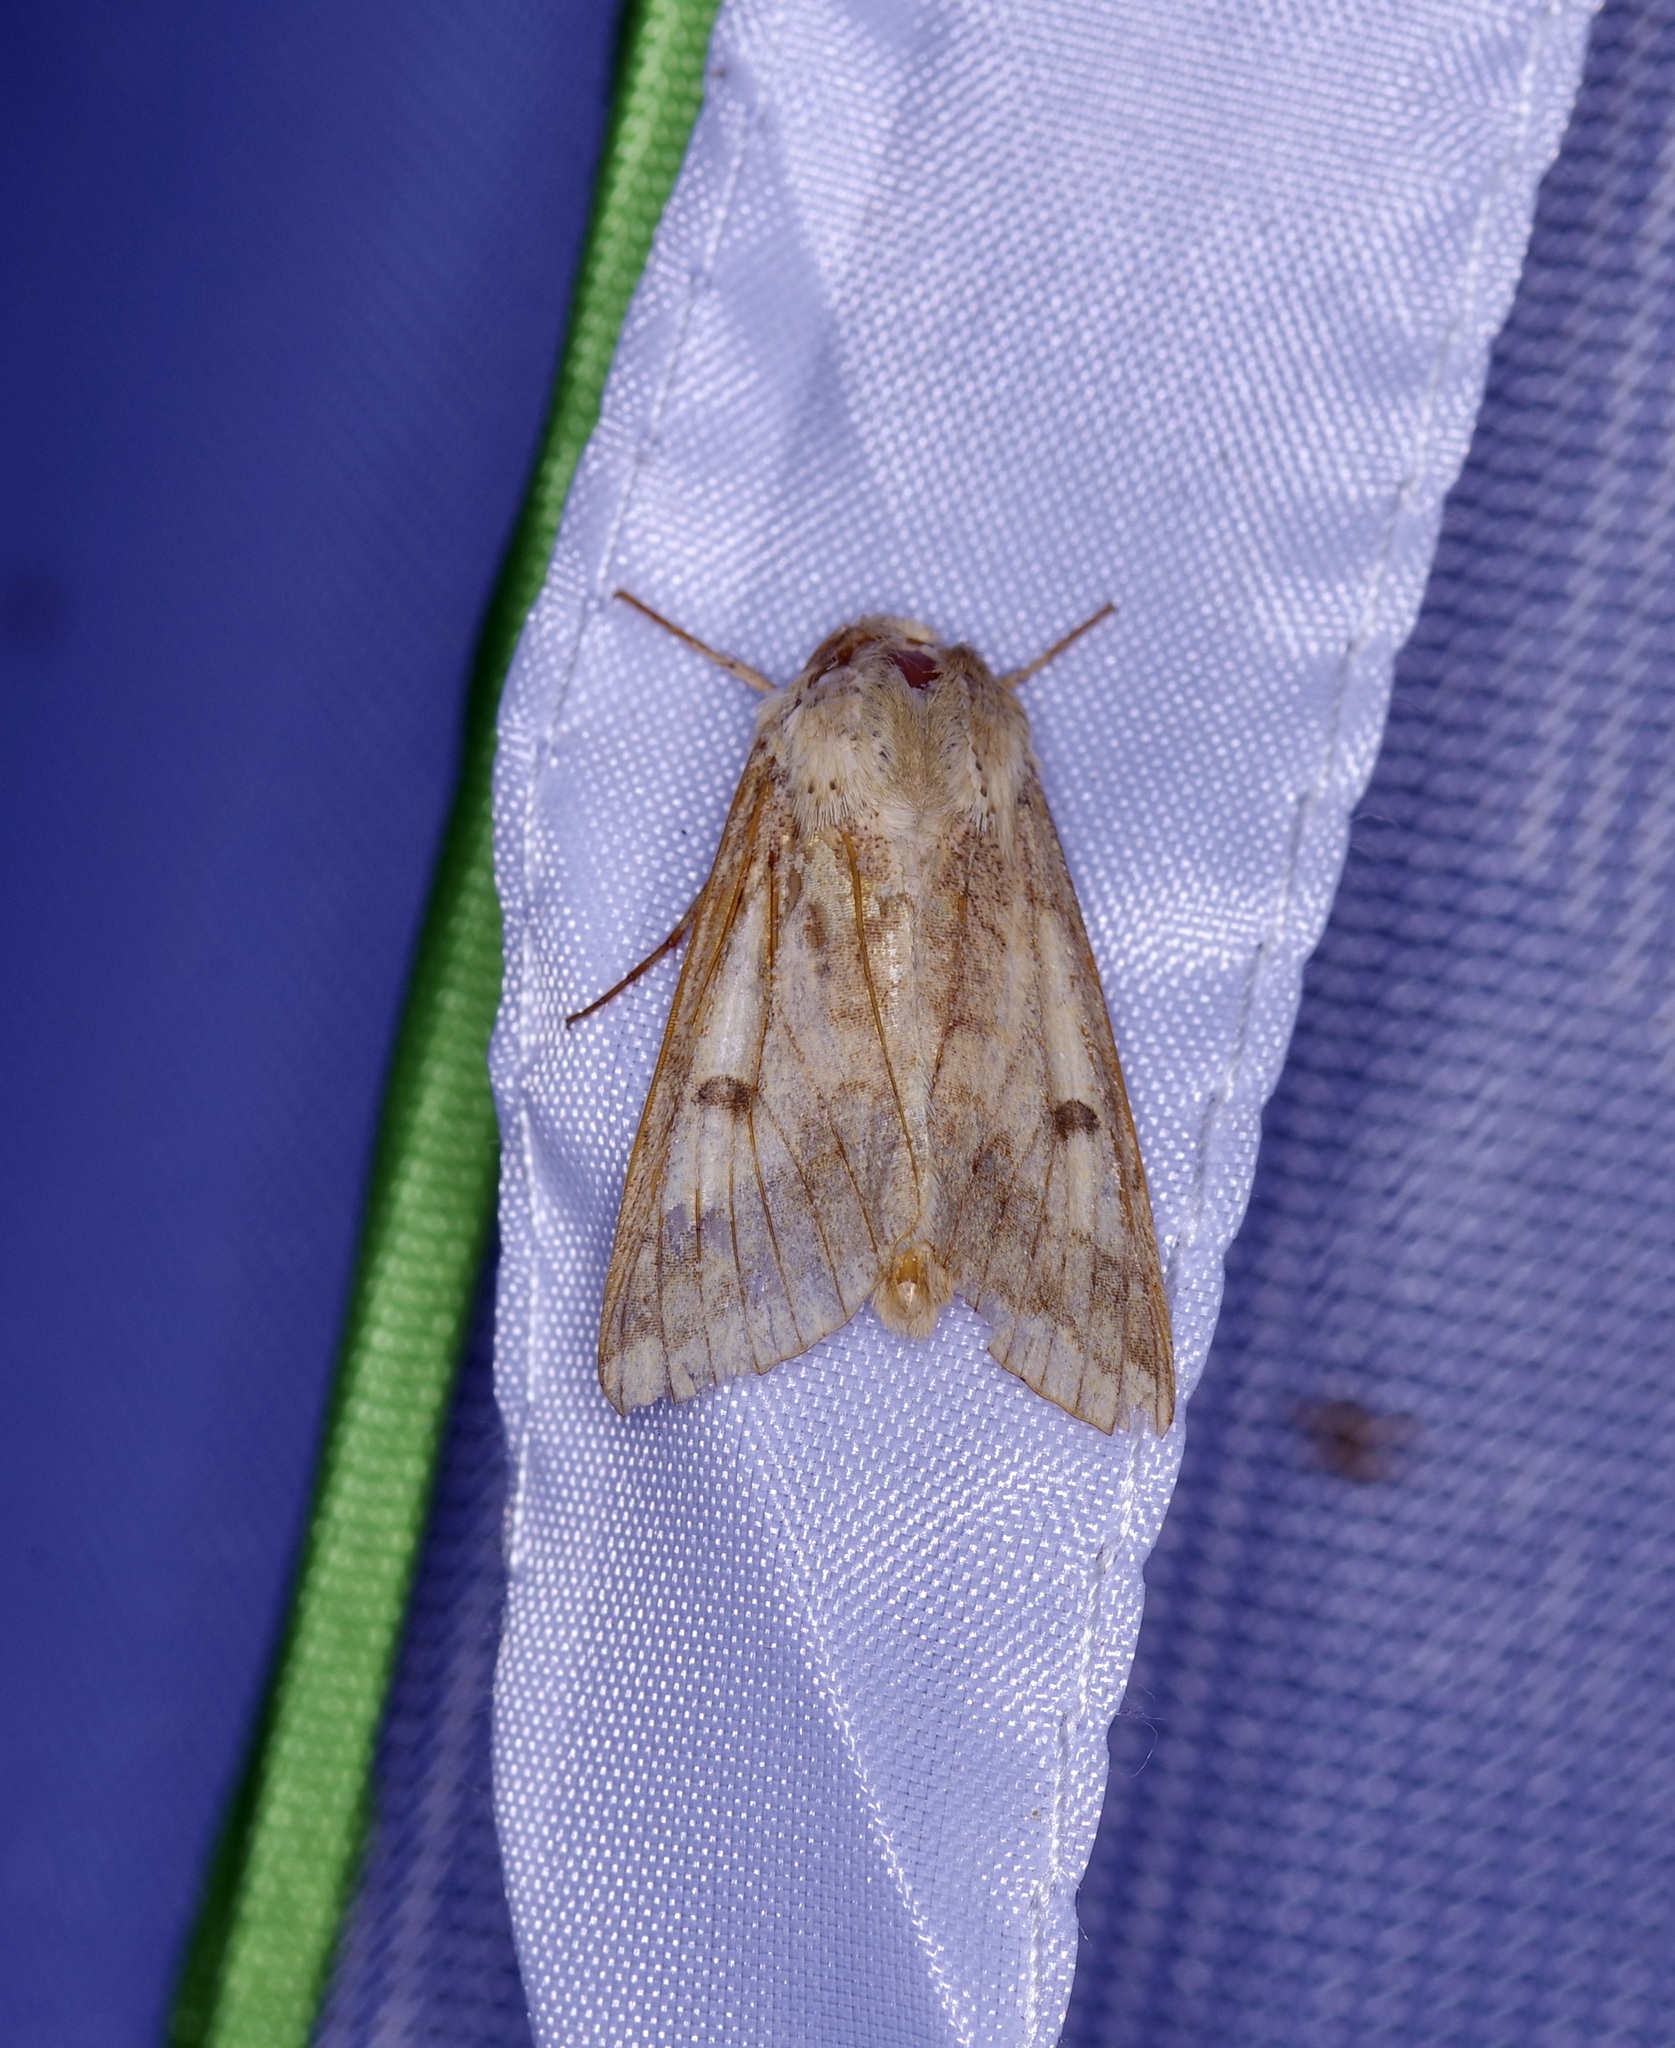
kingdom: Animalia
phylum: Arthropoda
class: Insecta
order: Lepidoptera
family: Noctuidae
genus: Helicoverpa
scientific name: Helicoverpa zea
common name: Bollworm
